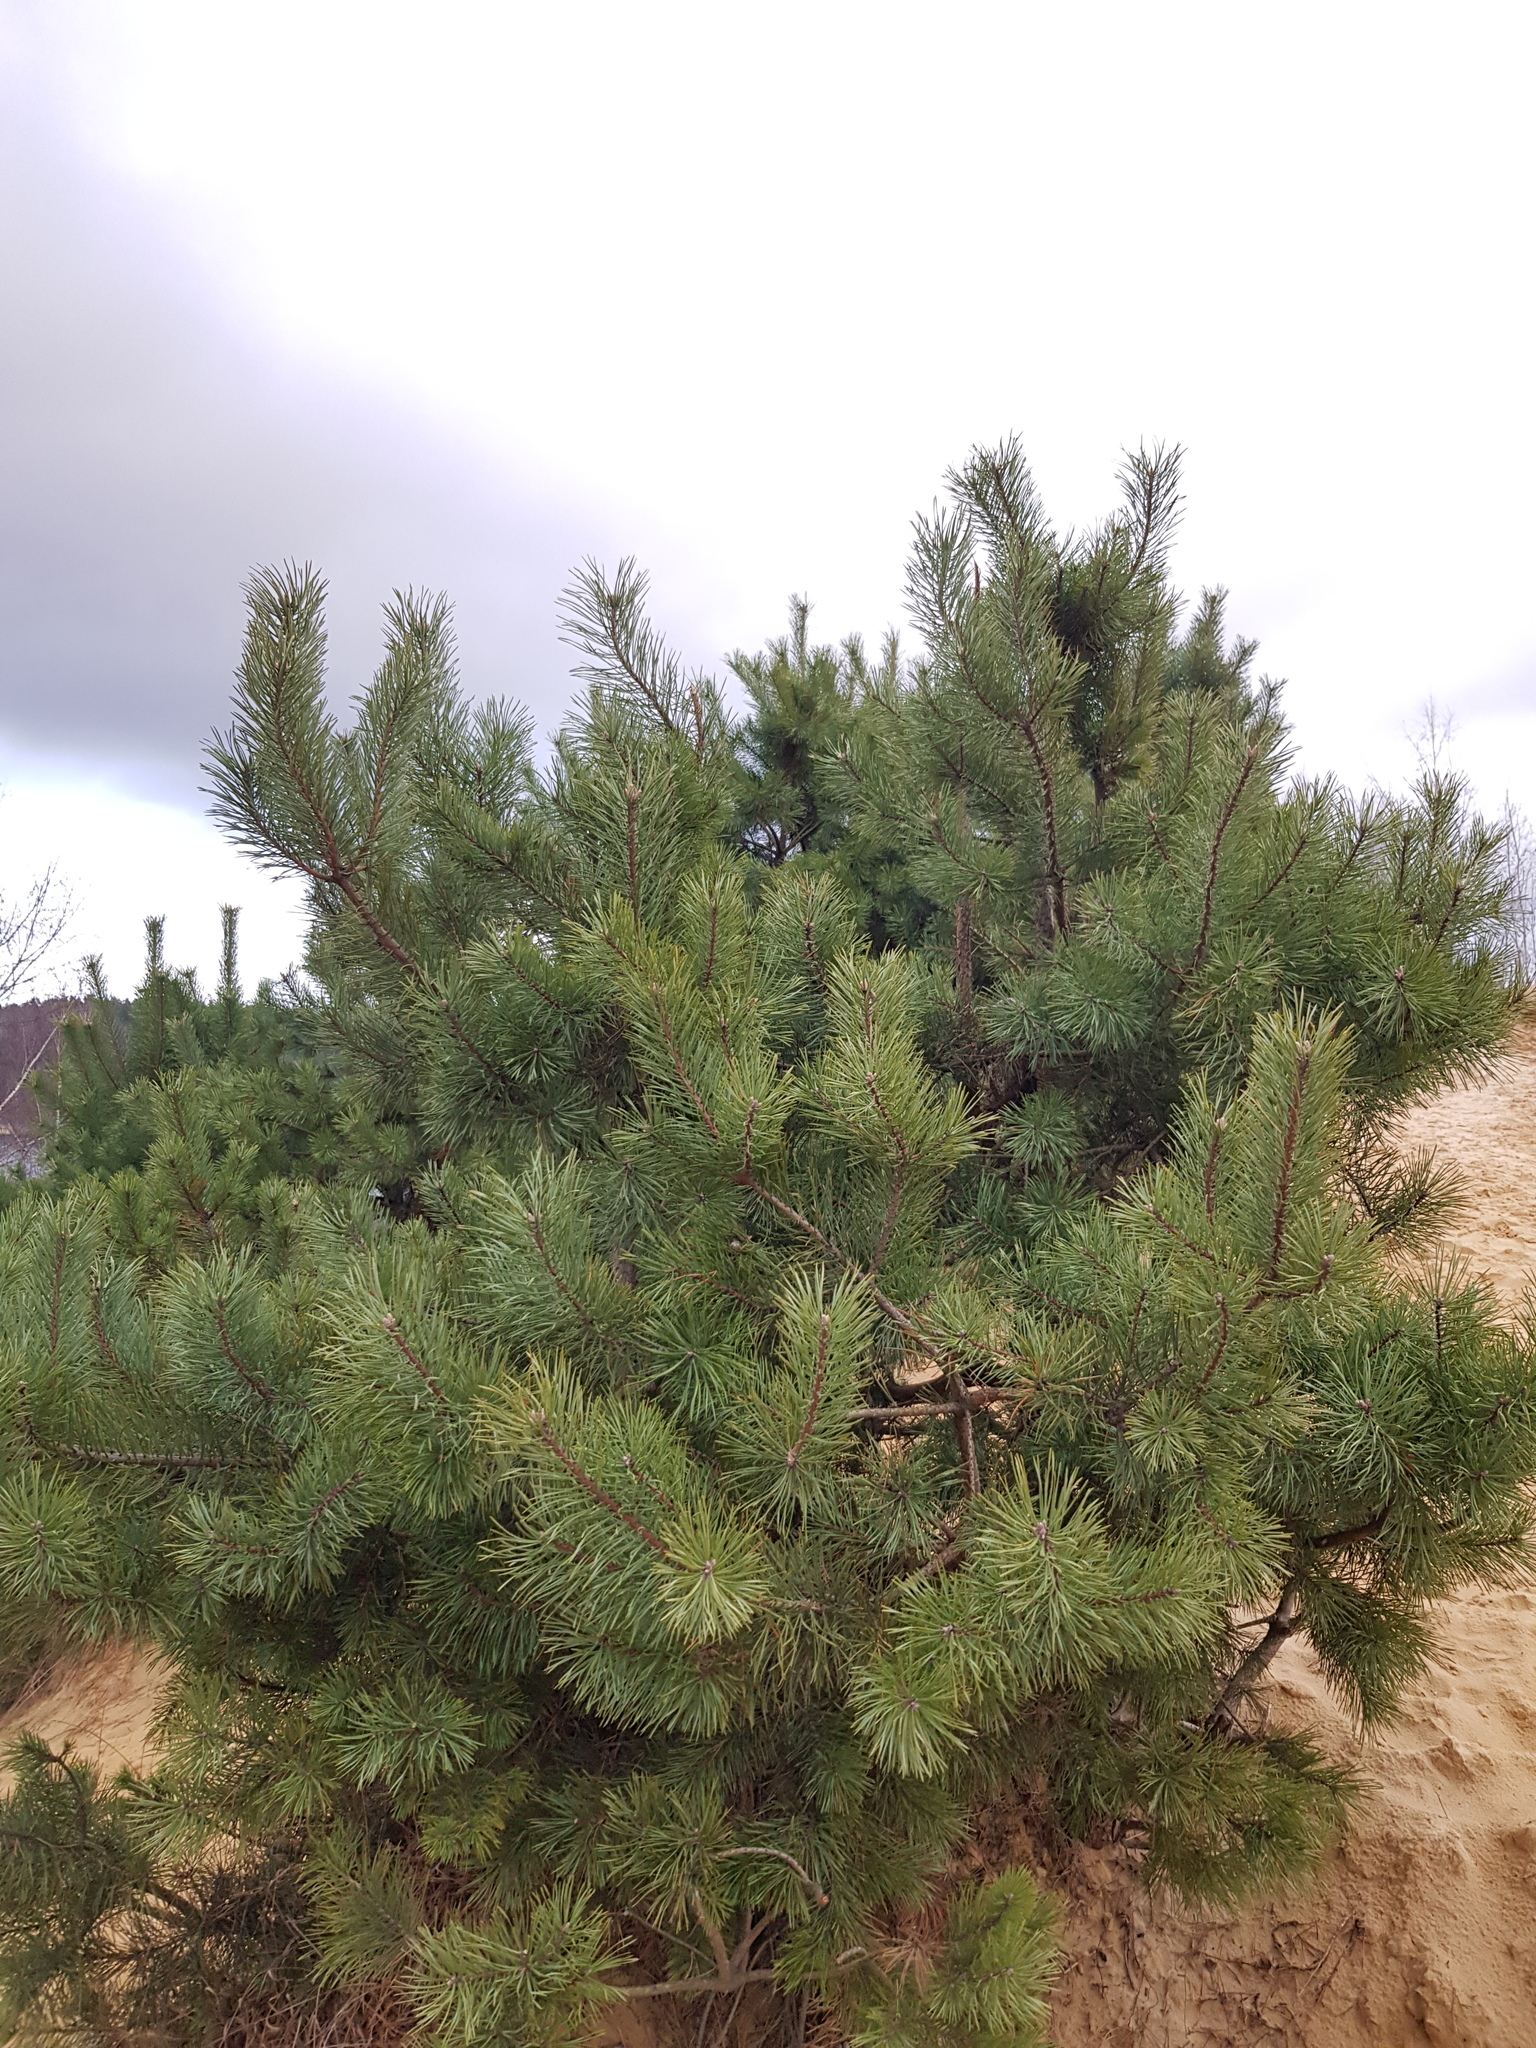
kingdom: Plantae
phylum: Tracheophyta
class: Pinopsida
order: Pinales
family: Pinaceae
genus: Pinus
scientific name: Pinus sylvestris
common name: Scots pine
